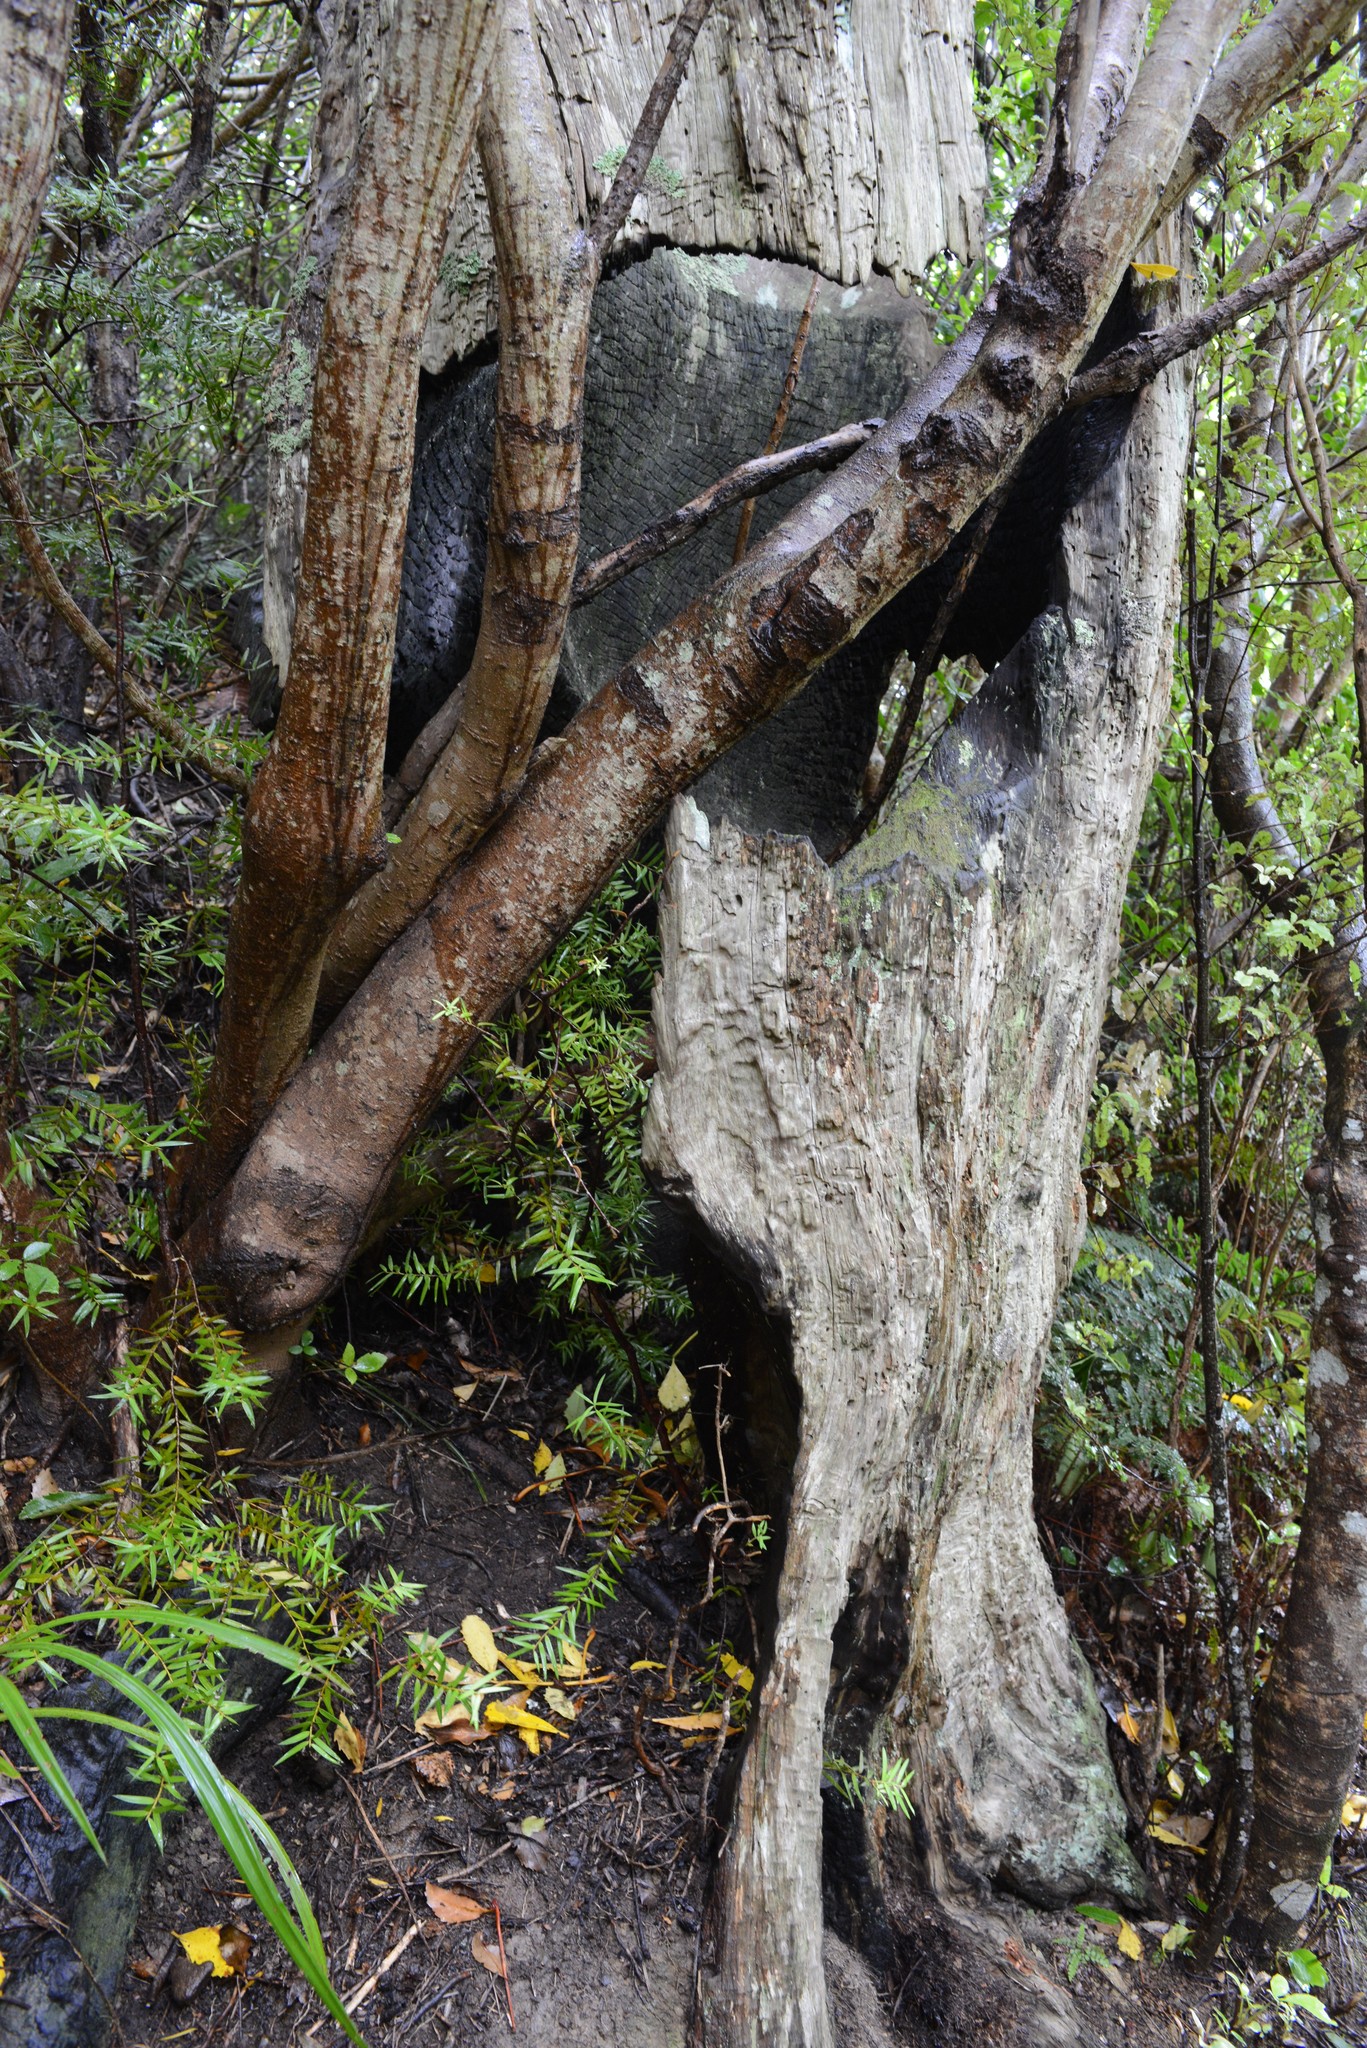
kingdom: Plantae
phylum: Tracheophyta
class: Pinopsida
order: Pinales
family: Podocarpaceae
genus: Podocarpus
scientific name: Podocarpus totara
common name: Totara
